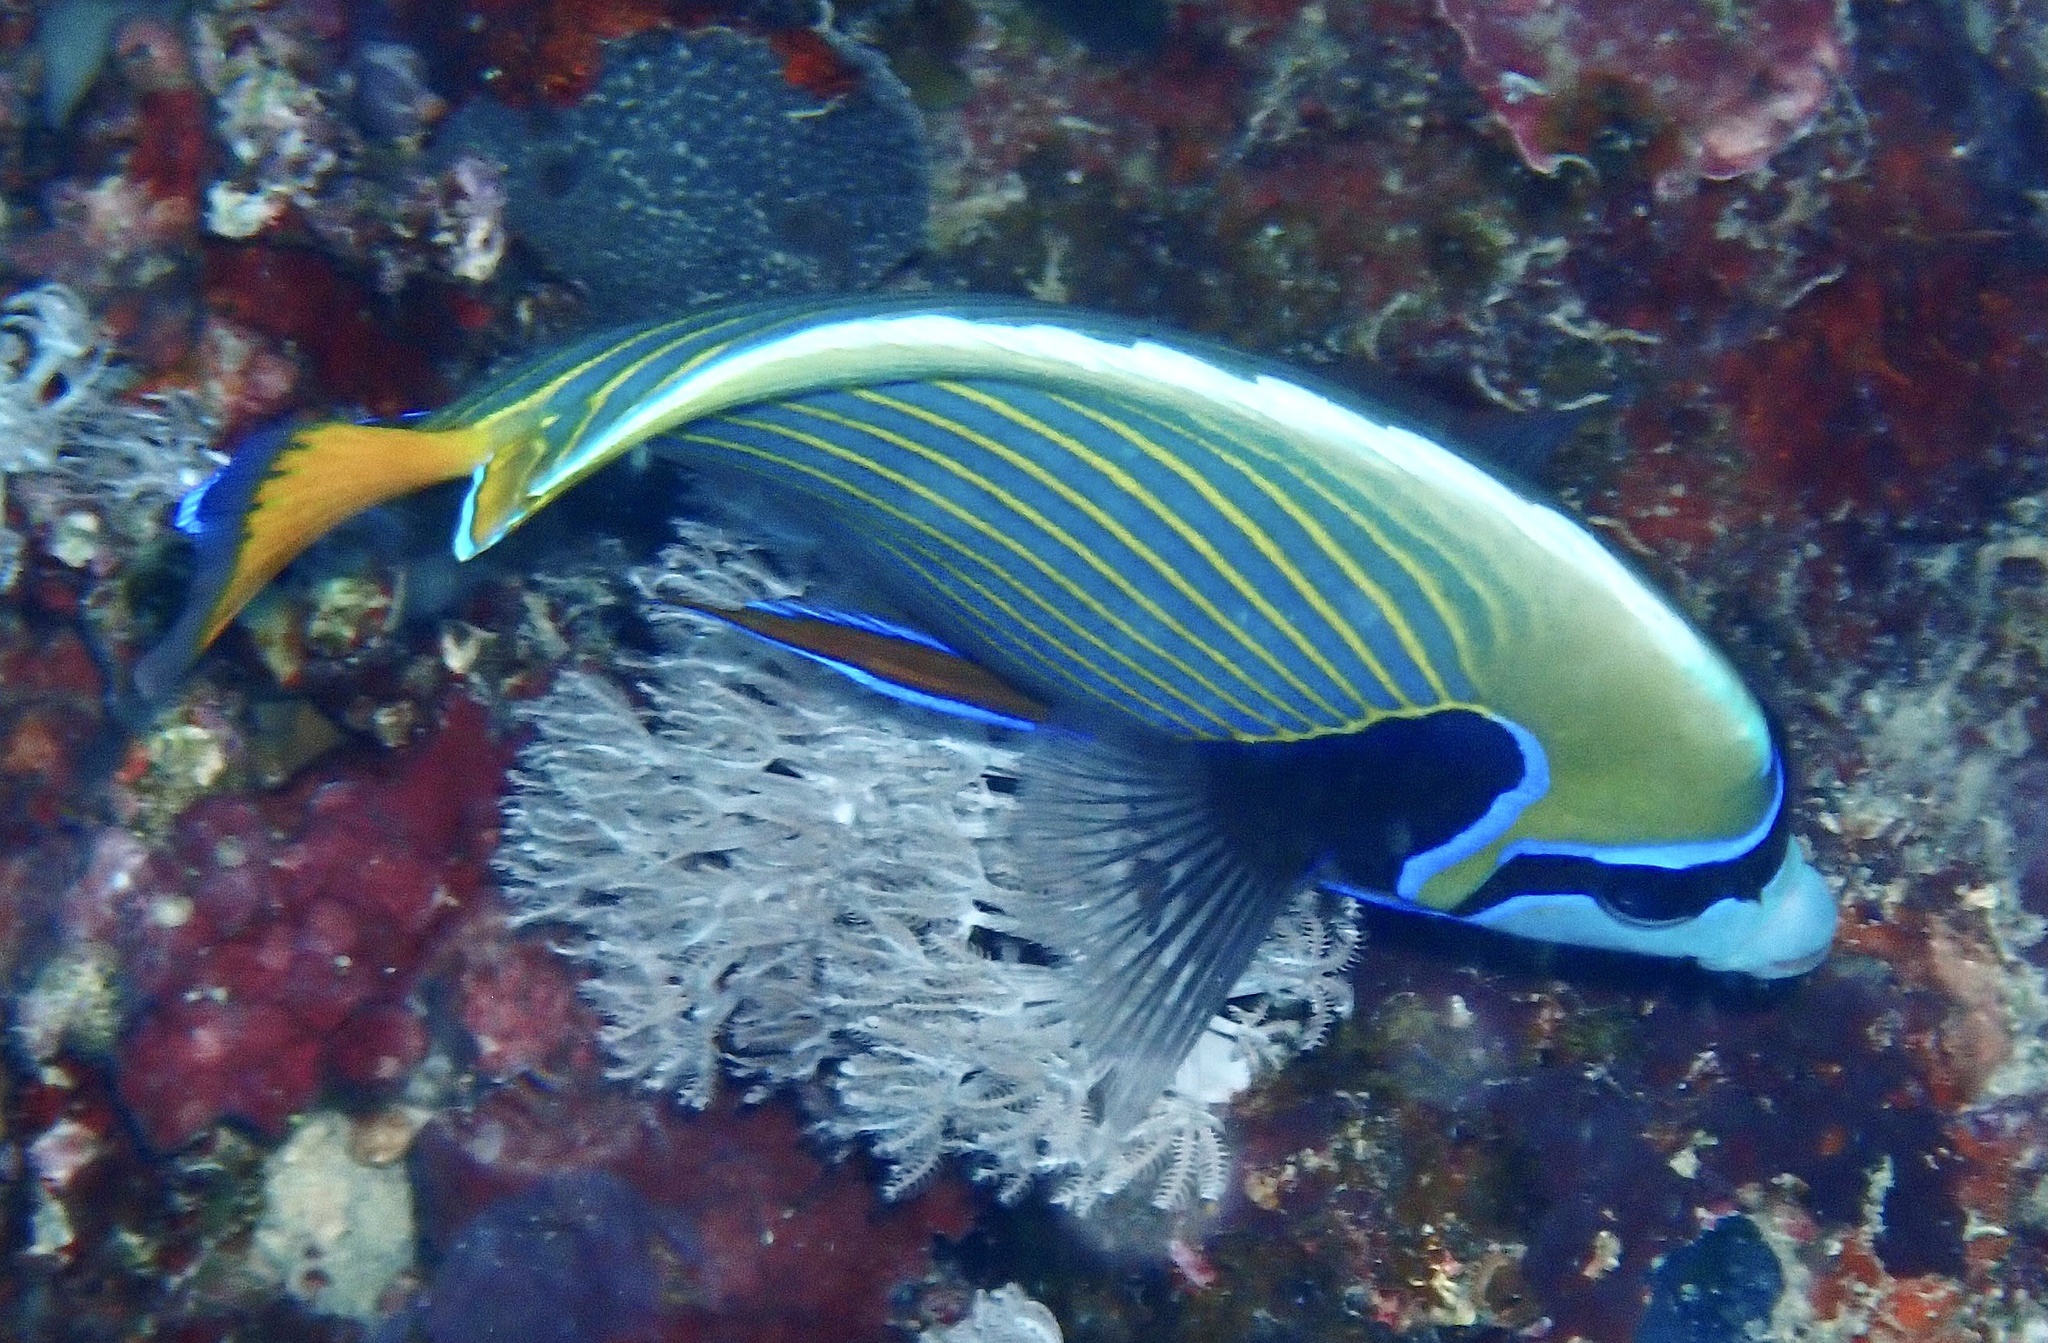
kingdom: Animalia
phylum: Chordata
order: Perciformes
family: Pomacanthidae
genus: Pomacanthus
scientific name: Pomacanthus imperator
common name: Emperor angelfish
